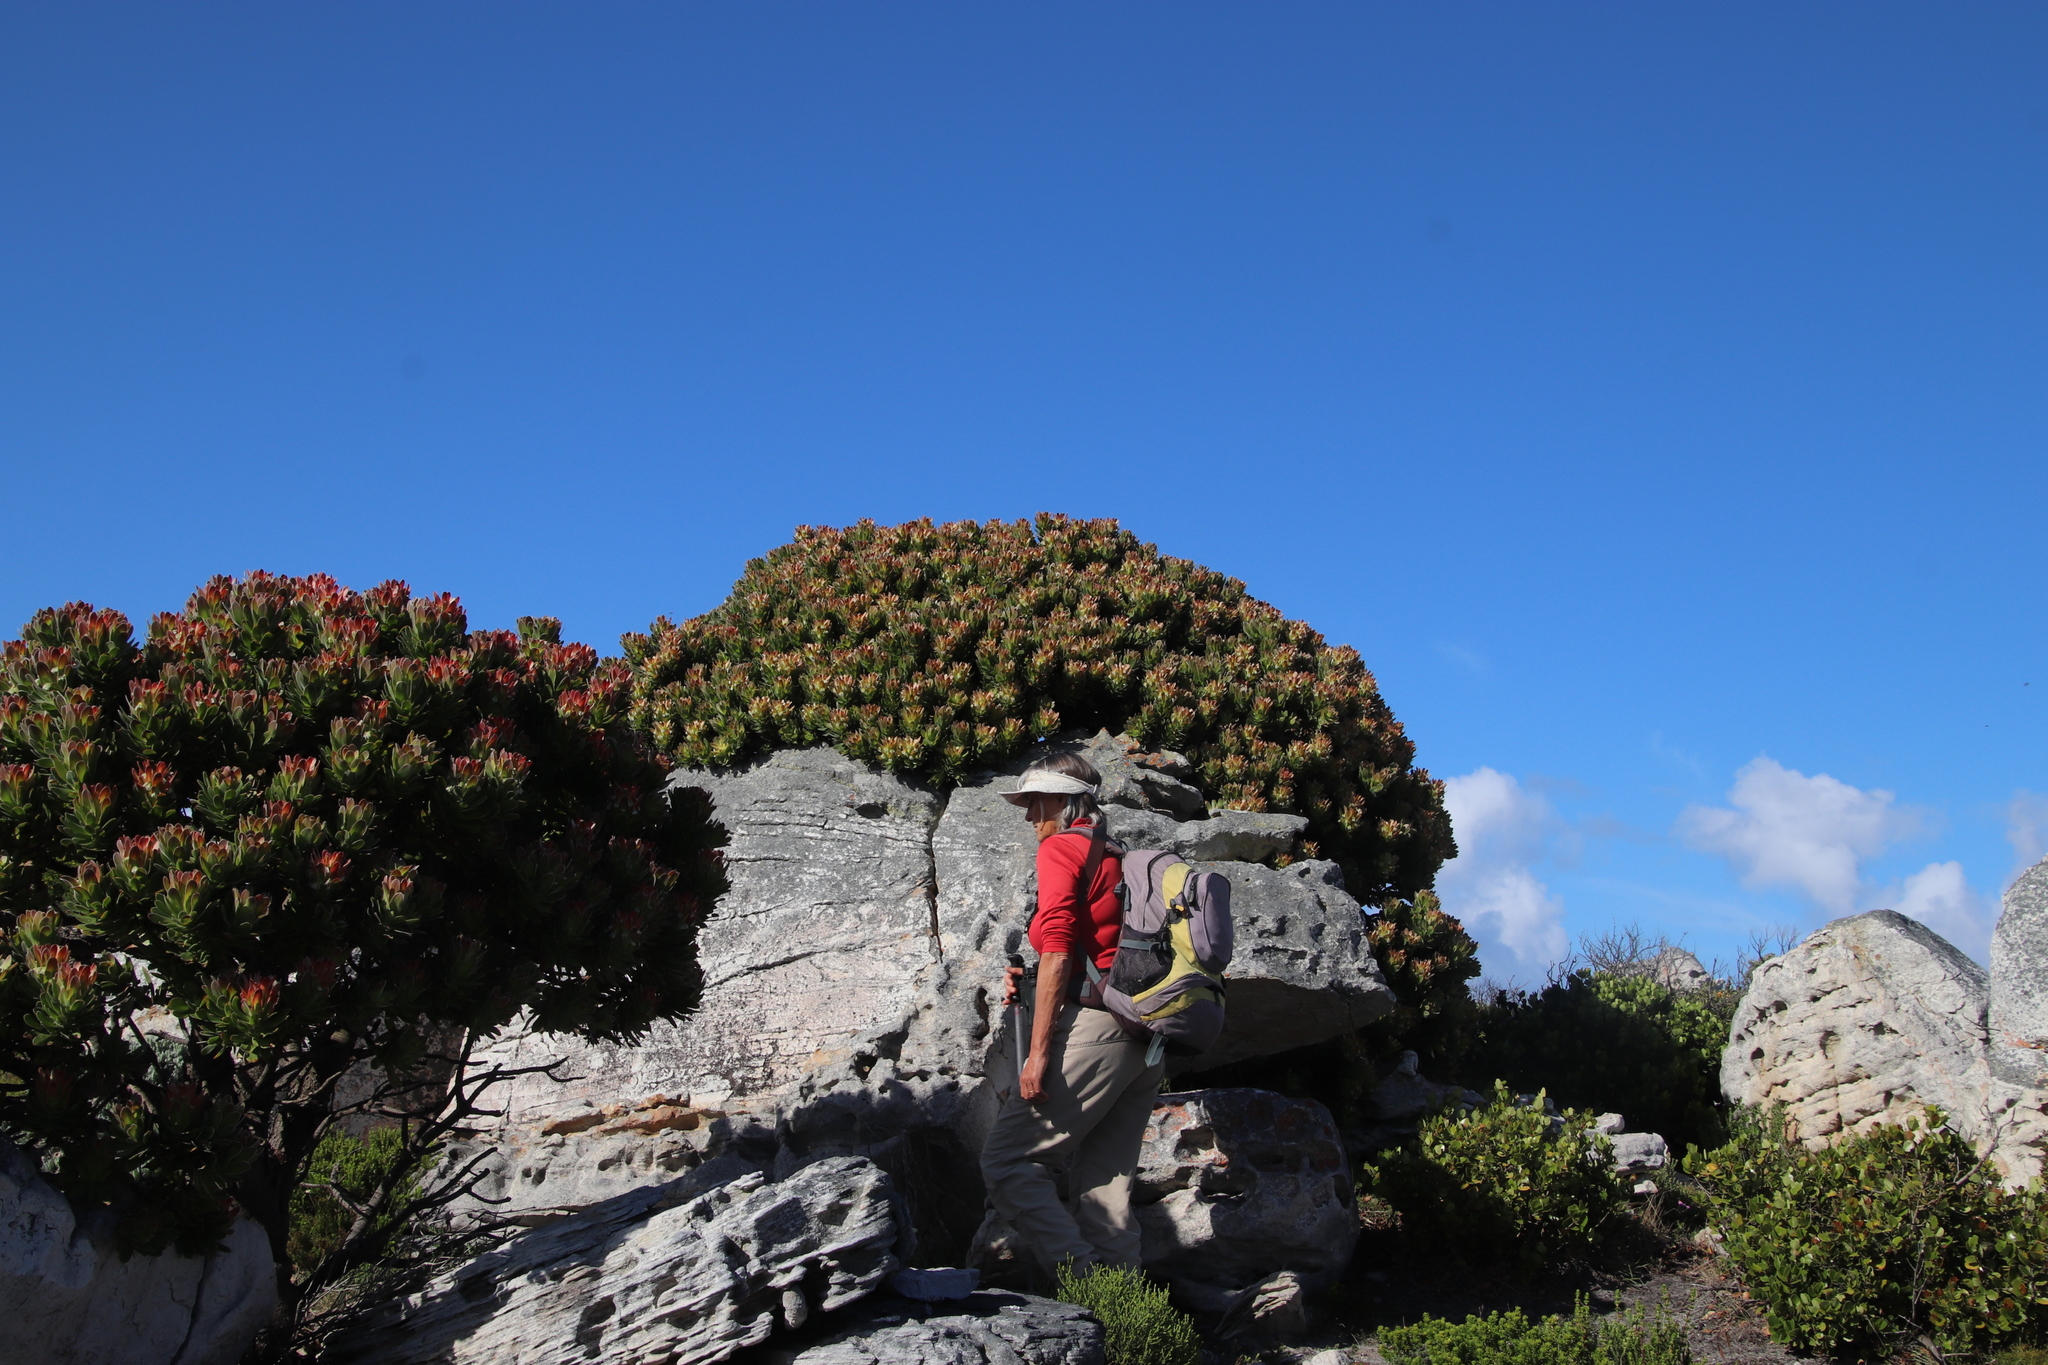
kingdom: Plantae
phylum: Tracheophyta
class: Magnoliopsida
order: Proteales
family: Proteaceae
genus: Mimetes
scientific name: Mimetes fimbriifolius
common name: Fringed bottlebrush
